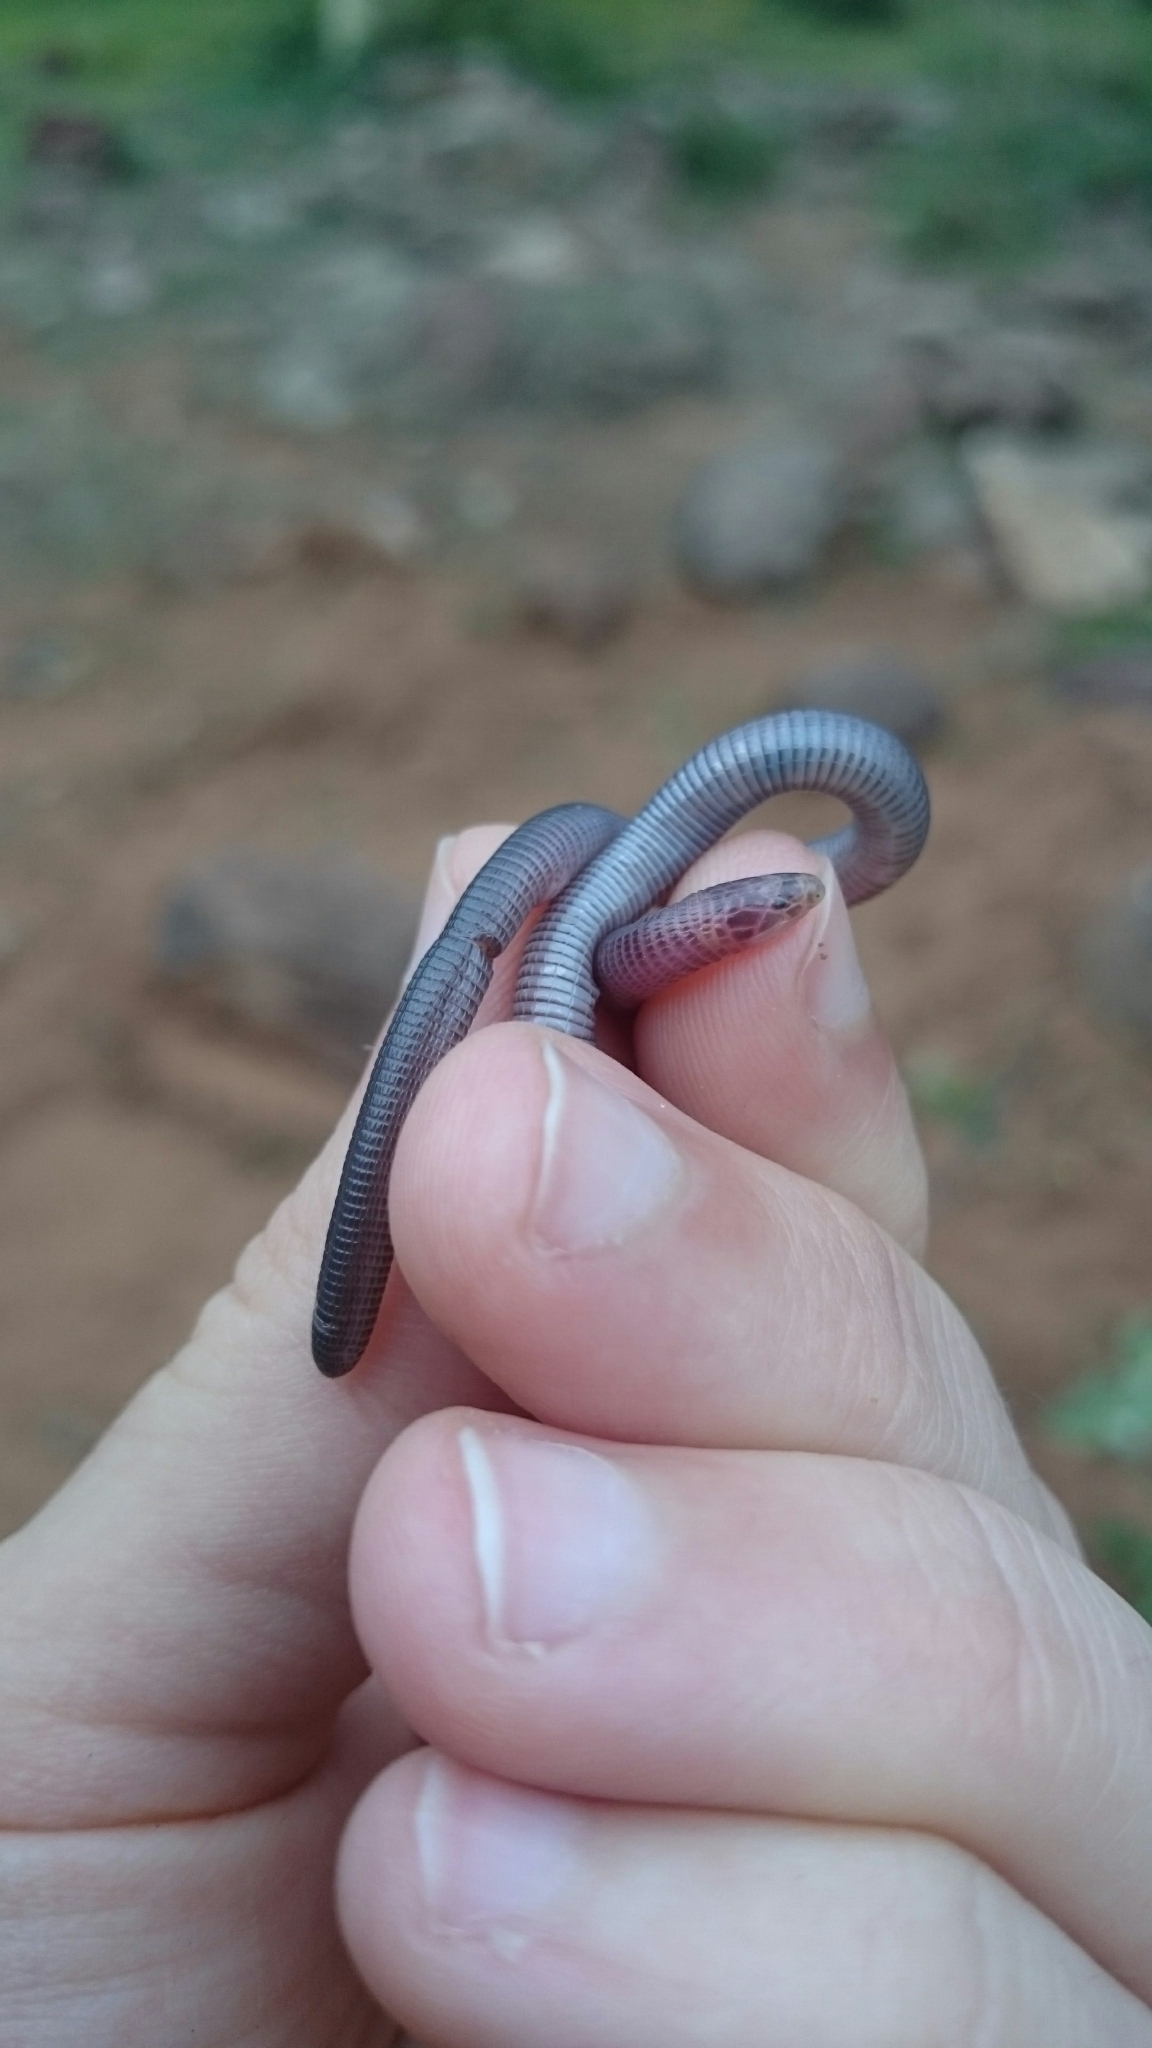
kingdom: Animalia
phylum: Chordata
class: Squamata
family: Amphisbaenidae
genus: Zygaspis
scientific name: Zygaspis arenicola
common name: Sand-dwelling dwarf worm lizard
